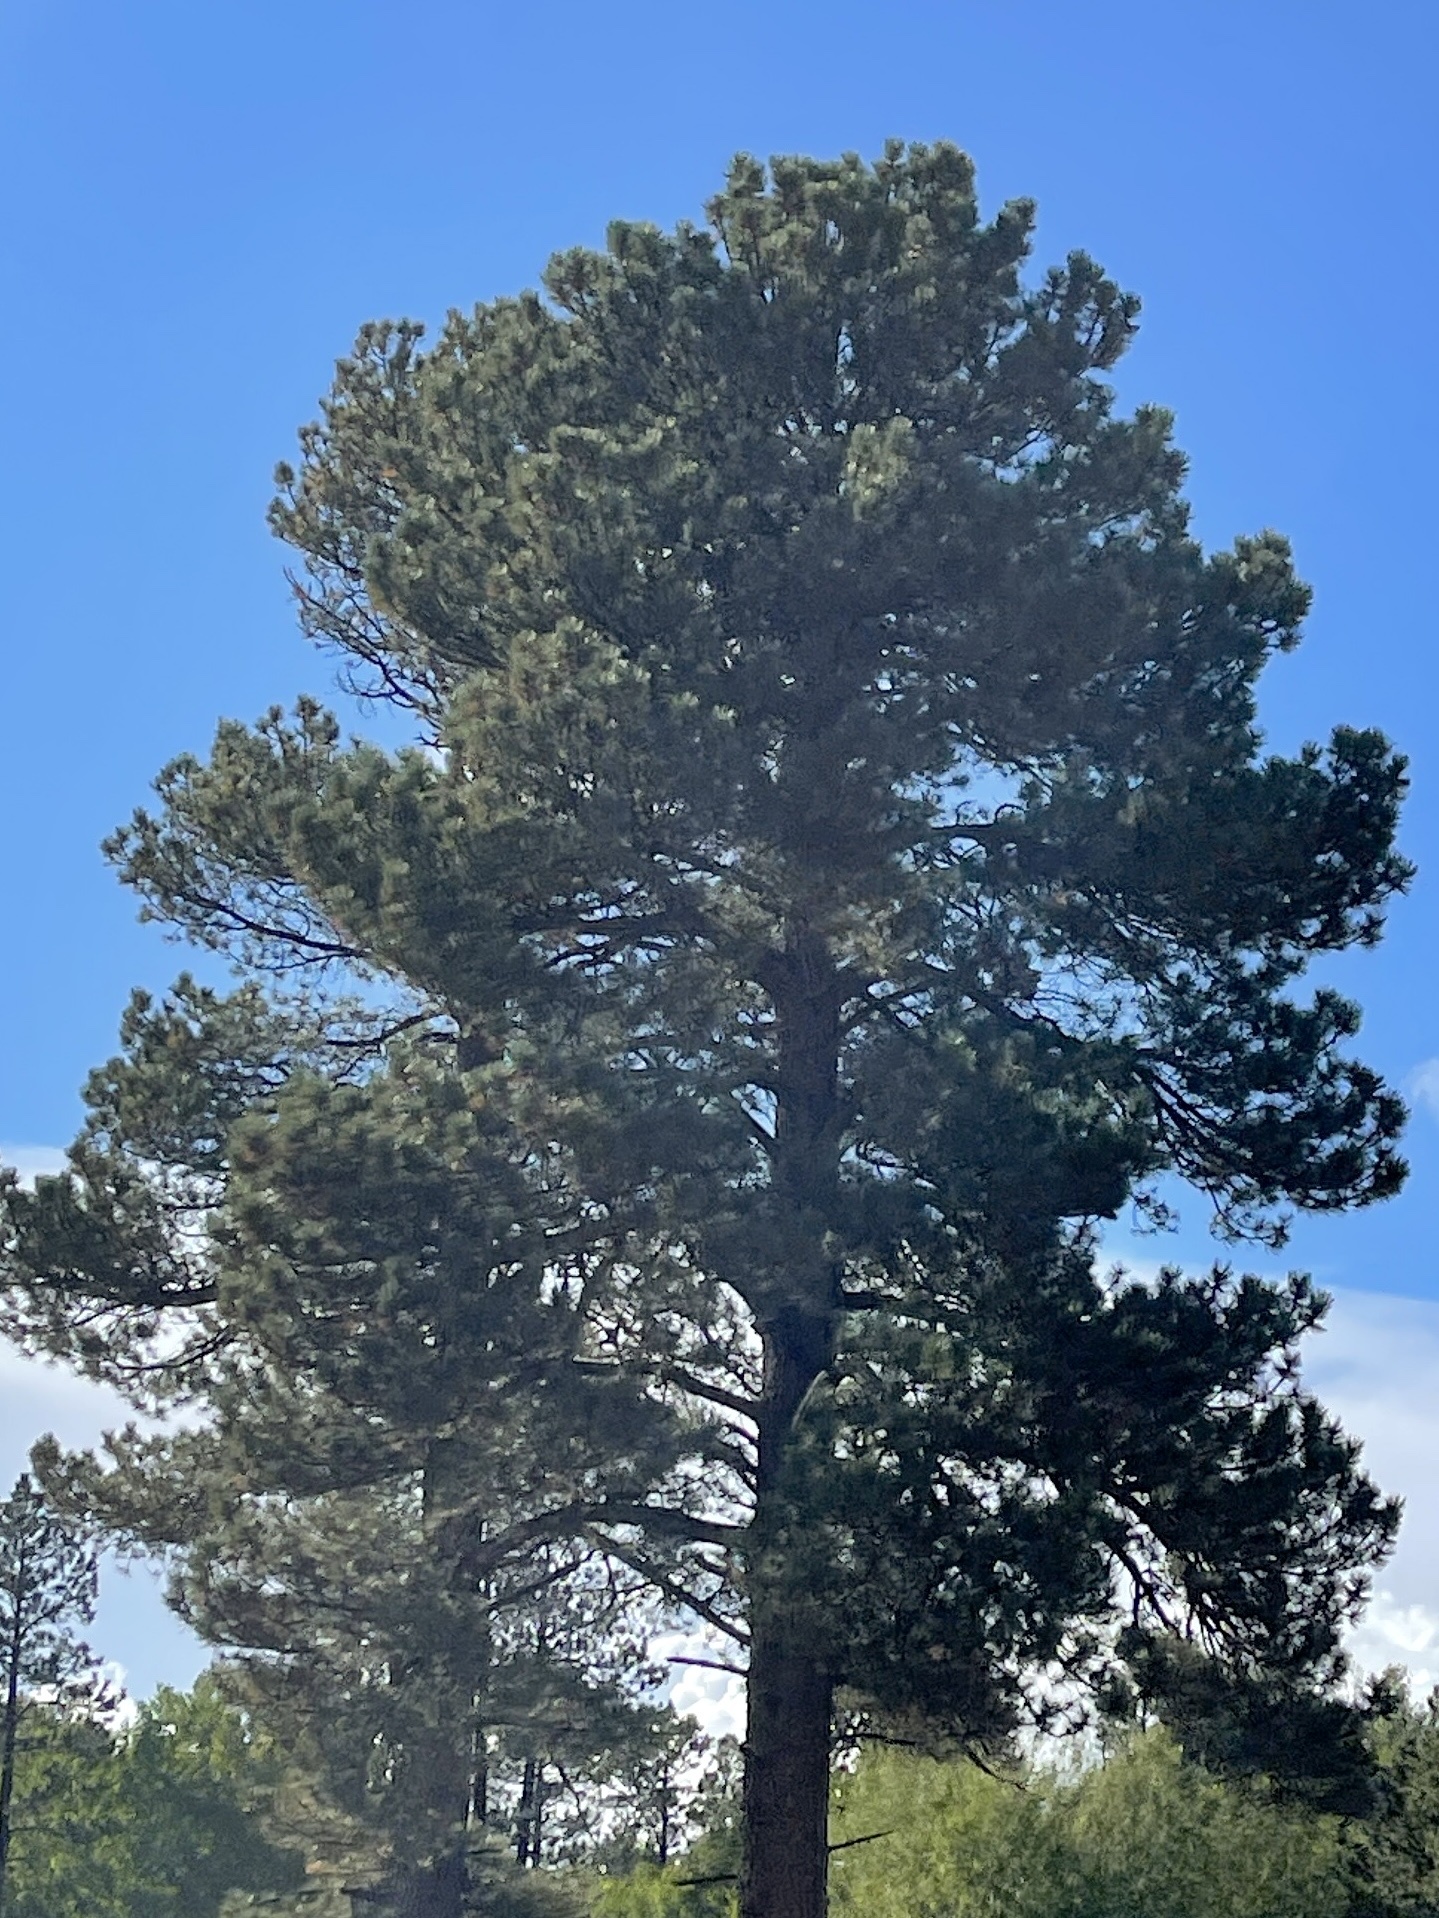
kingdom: Plantae
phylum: Tracheophyta
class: Pinopsida
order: Pinales
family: Pinaceae
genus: Pinus
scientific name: Pinus ponderosa
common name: Western yellow-pine
